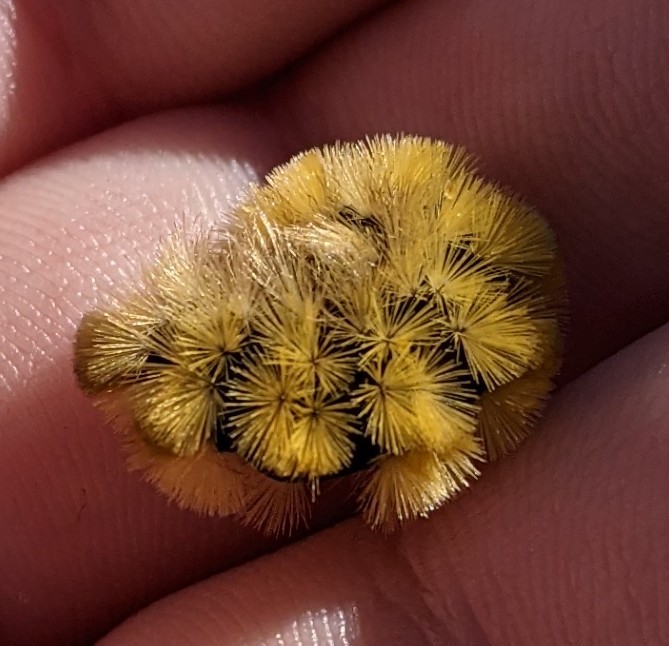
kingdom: Animalia
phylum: Arthropoda
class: Insecta
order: Lepidoptera
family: Erebidae
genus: Halysidota
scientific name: Halysidota tessellaris
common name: Banded tussock moth
